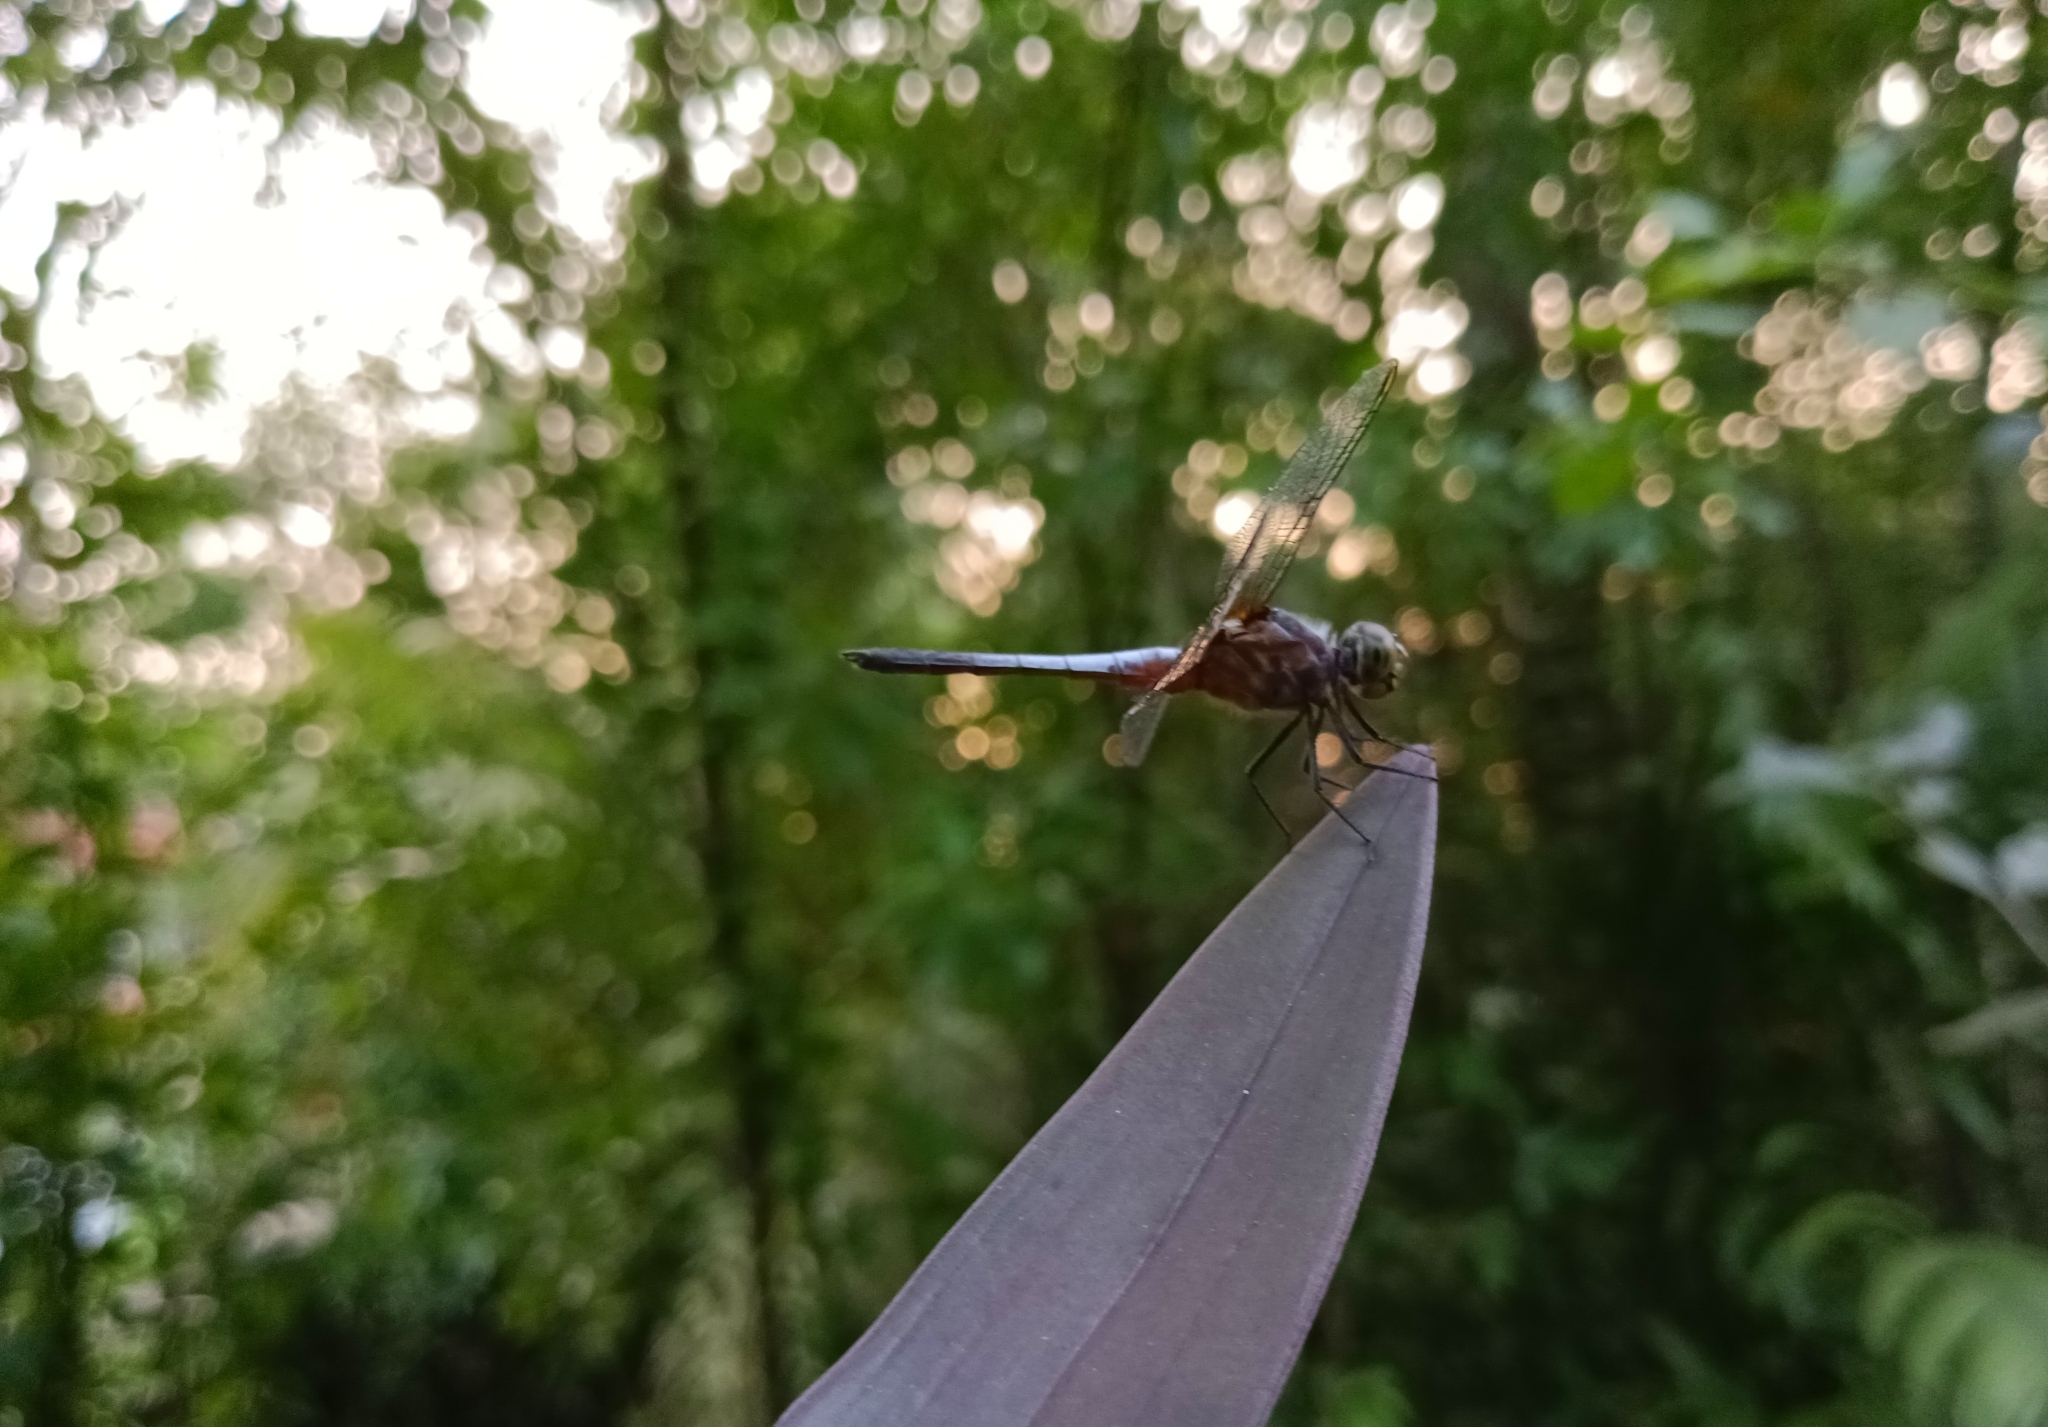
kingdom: Animalia
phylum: Arthropoda
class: Insecta
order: Odonata
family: Libellulidae
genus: Brachydiplax
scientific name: Brachydiplax chalybea
